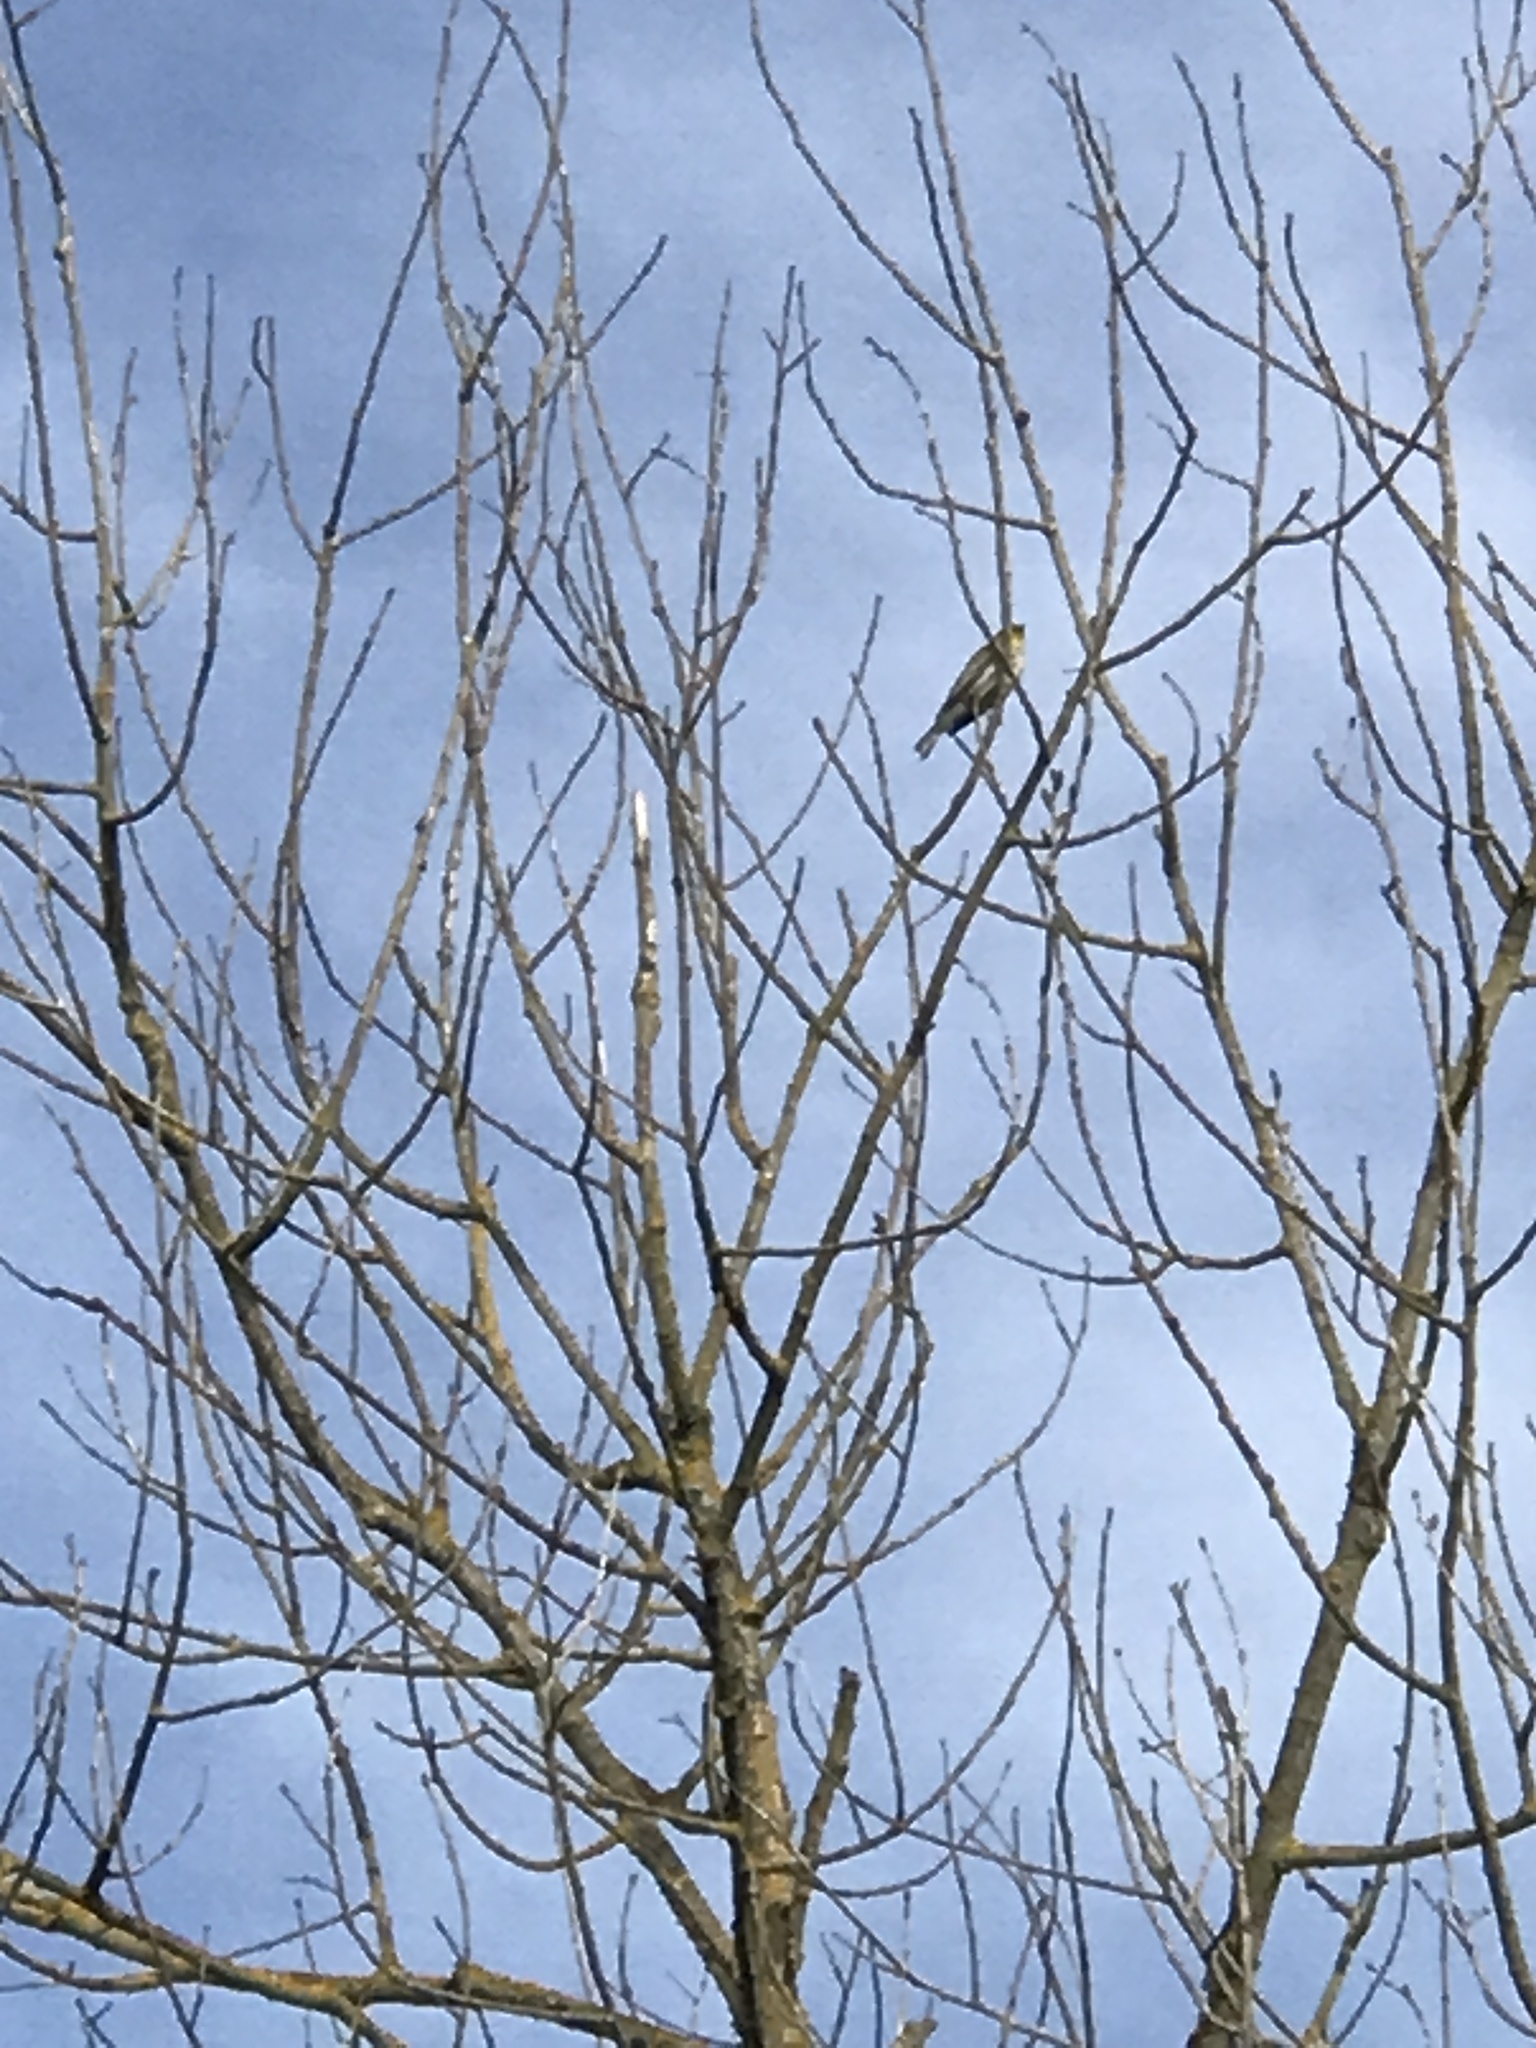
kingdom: Animalia
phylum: Chordata
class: Aves
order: Passeriformes
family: Parulidae
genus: Setophaga
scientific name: Setophaga coronata
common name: Myrtle warbler
